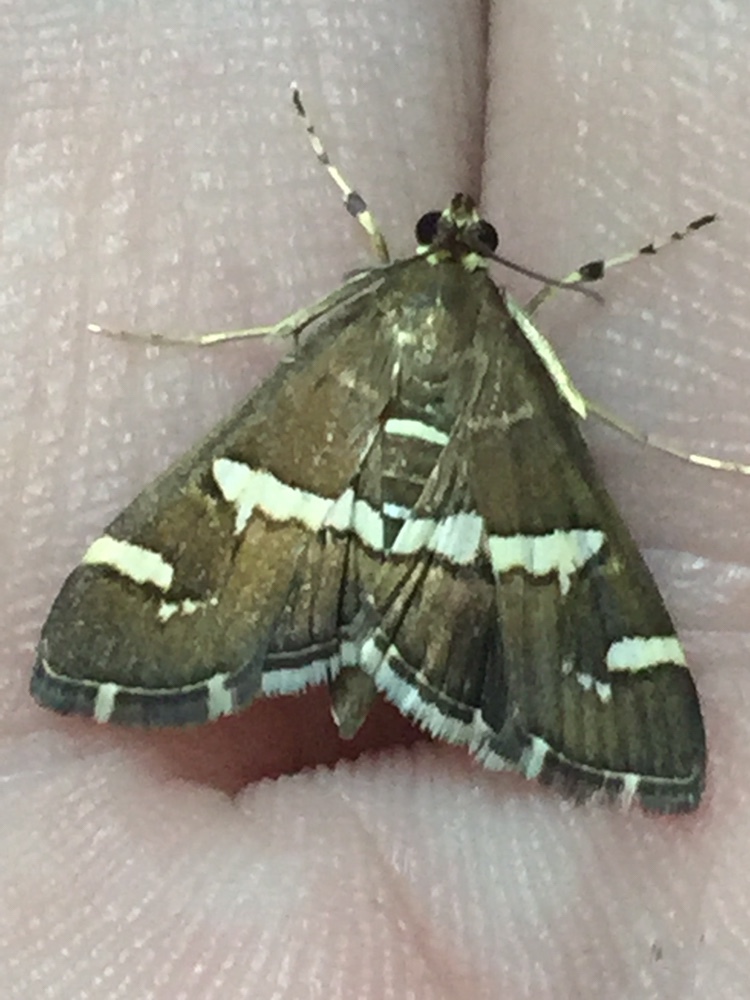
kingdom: Animalia
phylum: Arthropoda
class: Insecta
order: Lepidoptera
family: Crambidae
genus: Spoladea
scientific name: Spoladea recurvalis
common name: Beet webworm moth
